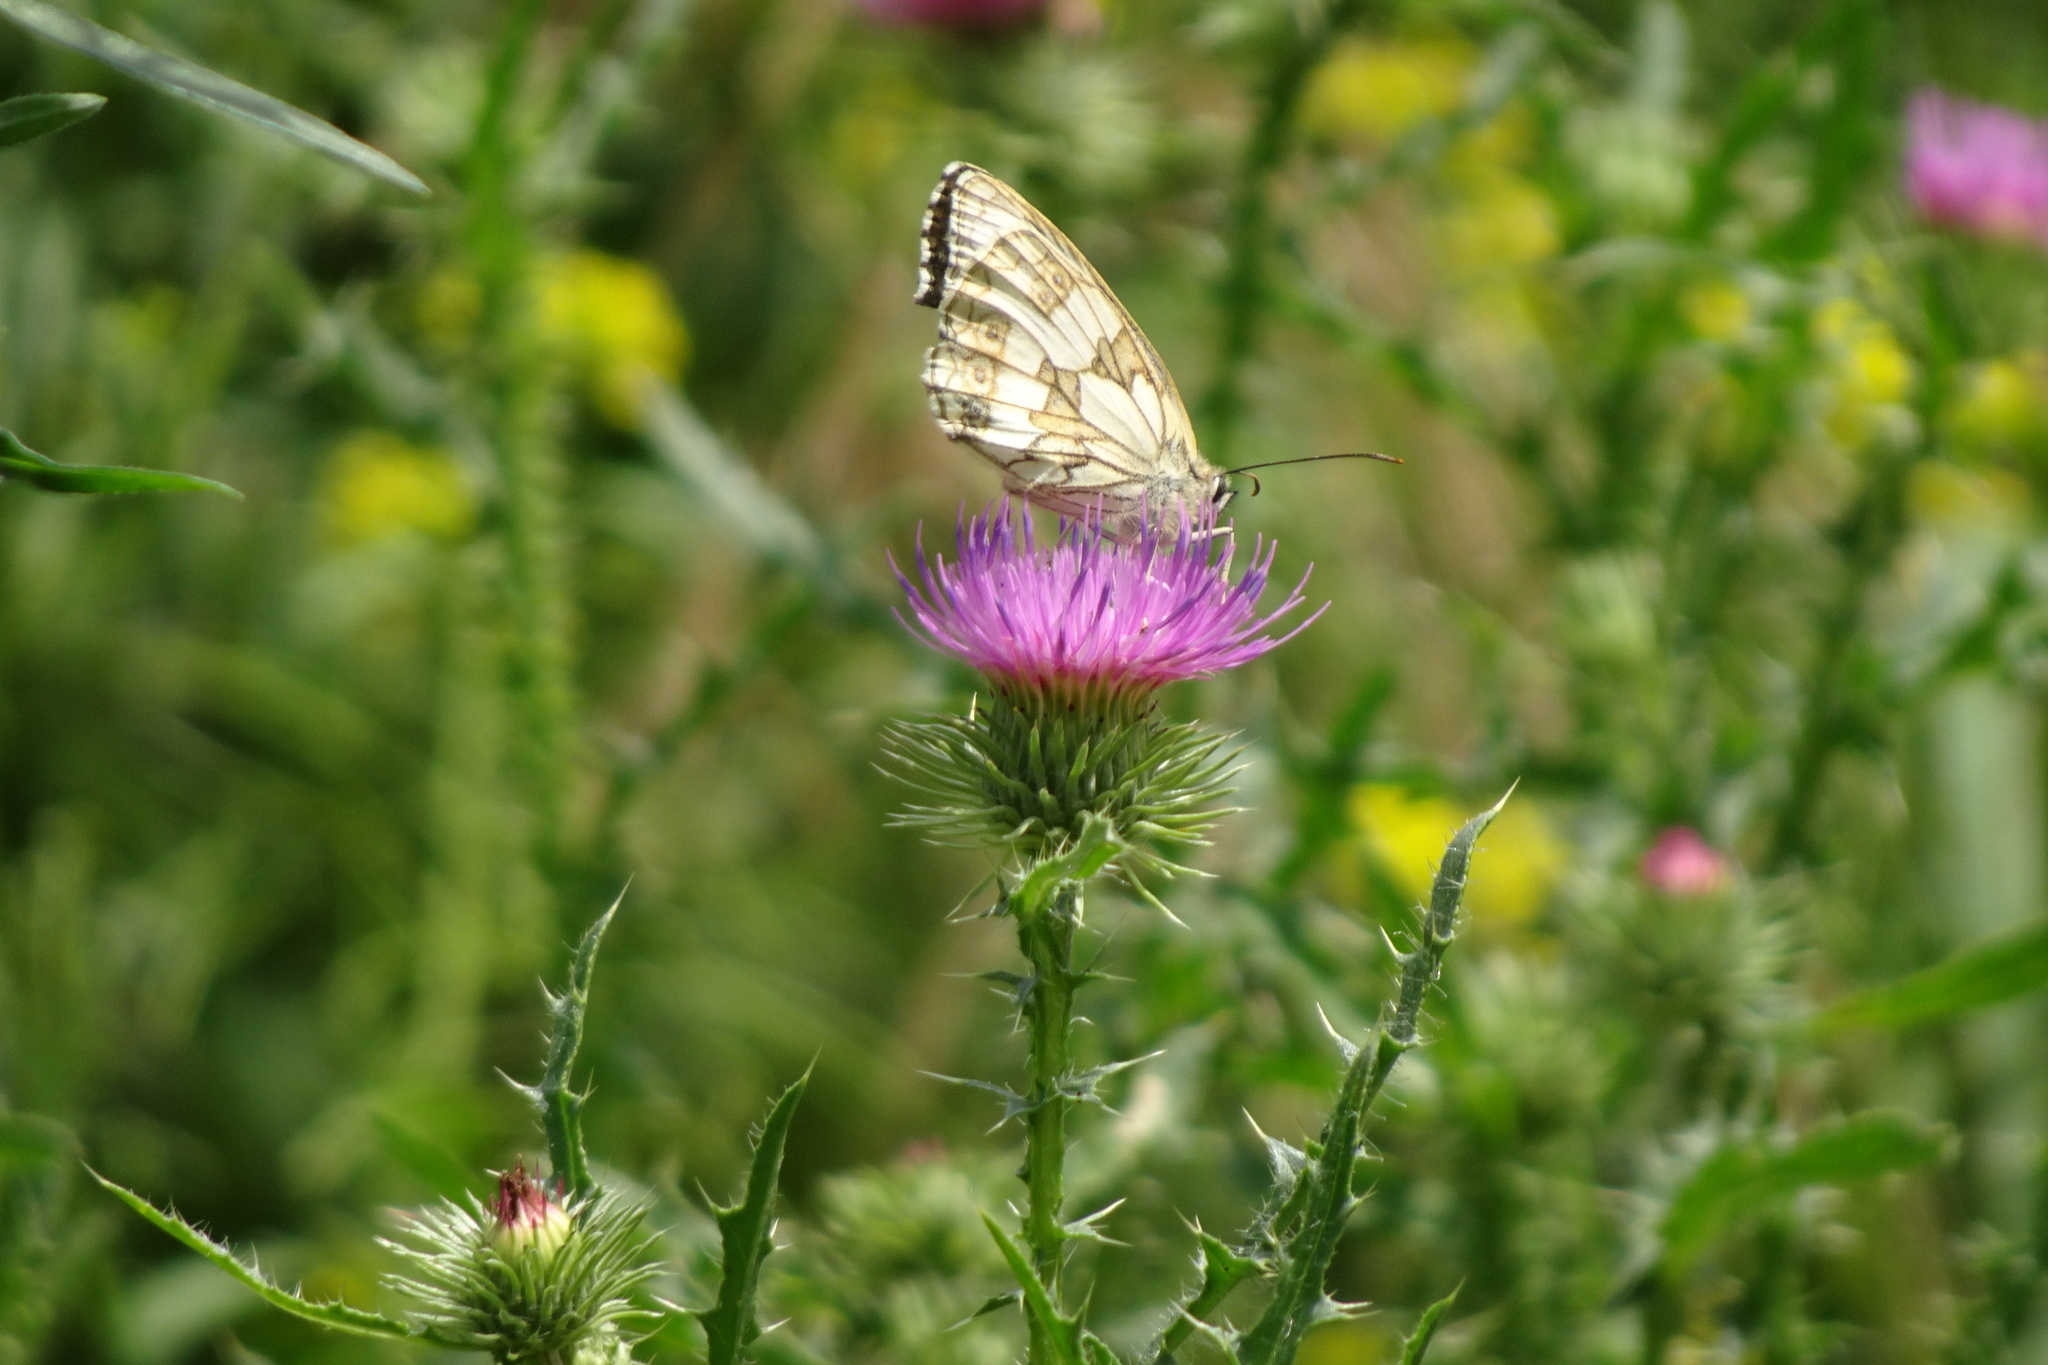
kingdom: Animalia
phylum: Arthropoda
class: Insecta
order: Lepidoptera
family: Nymphalidae
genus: Melanargia
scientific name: Melanargia galathea
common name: Marbled white
